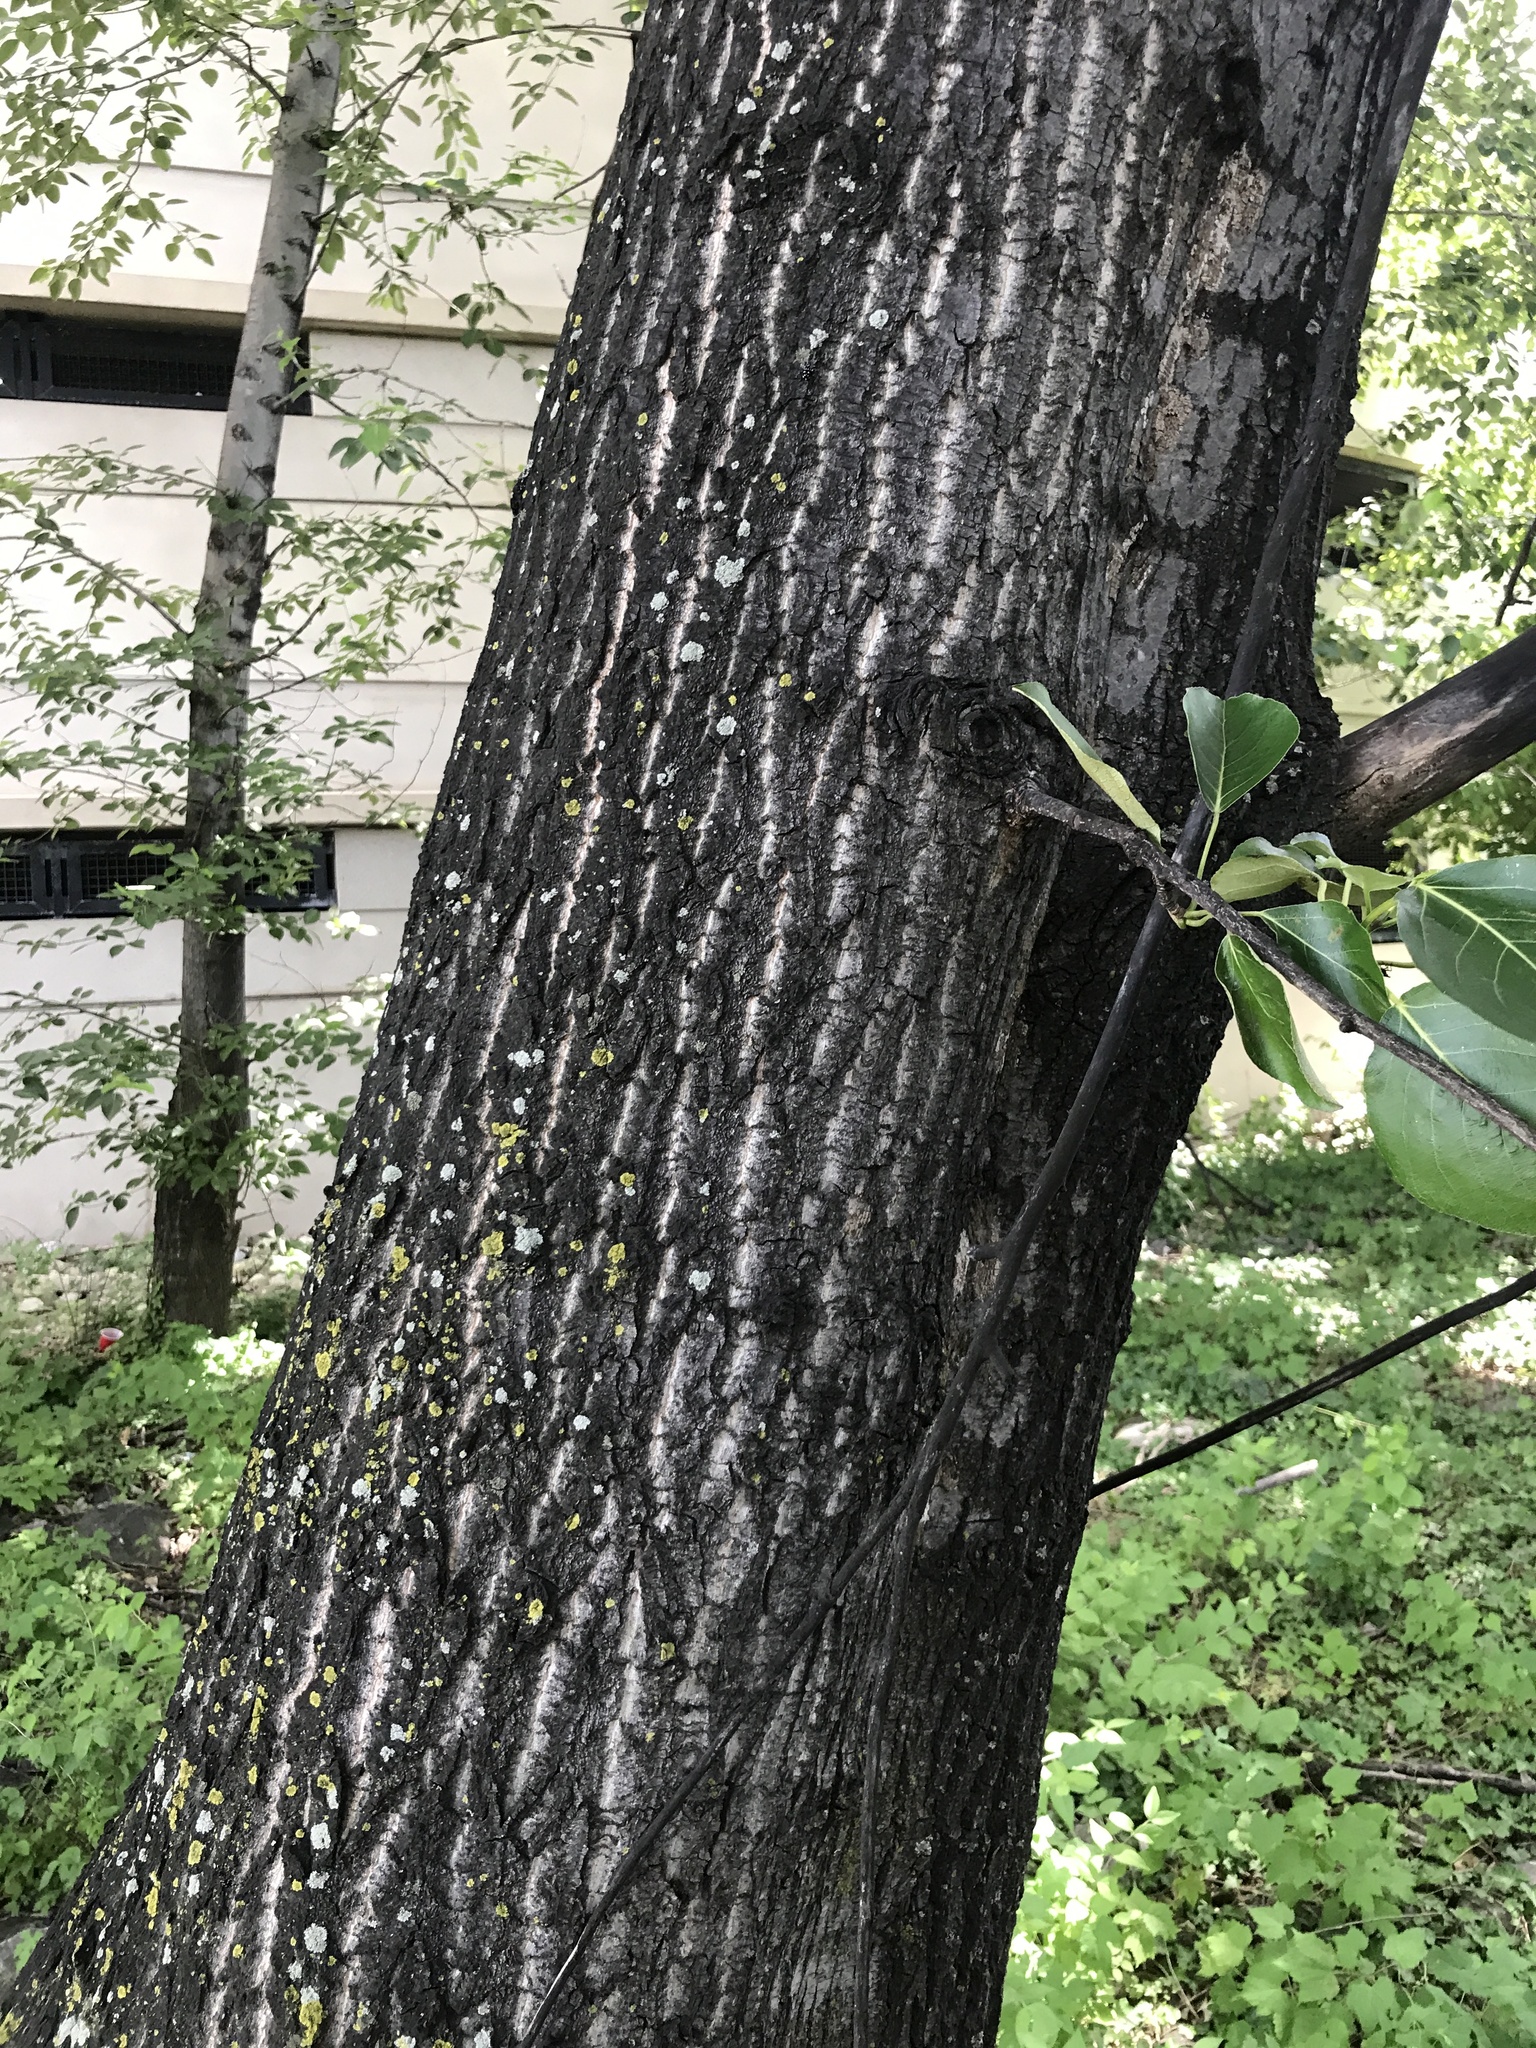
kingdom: Plantae
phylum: Tracheophyta
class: Magnoliopsida
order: Malpighiales
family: Salicaceae
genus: Populus
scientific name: Populus balsamifera
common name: Balsam poplar
